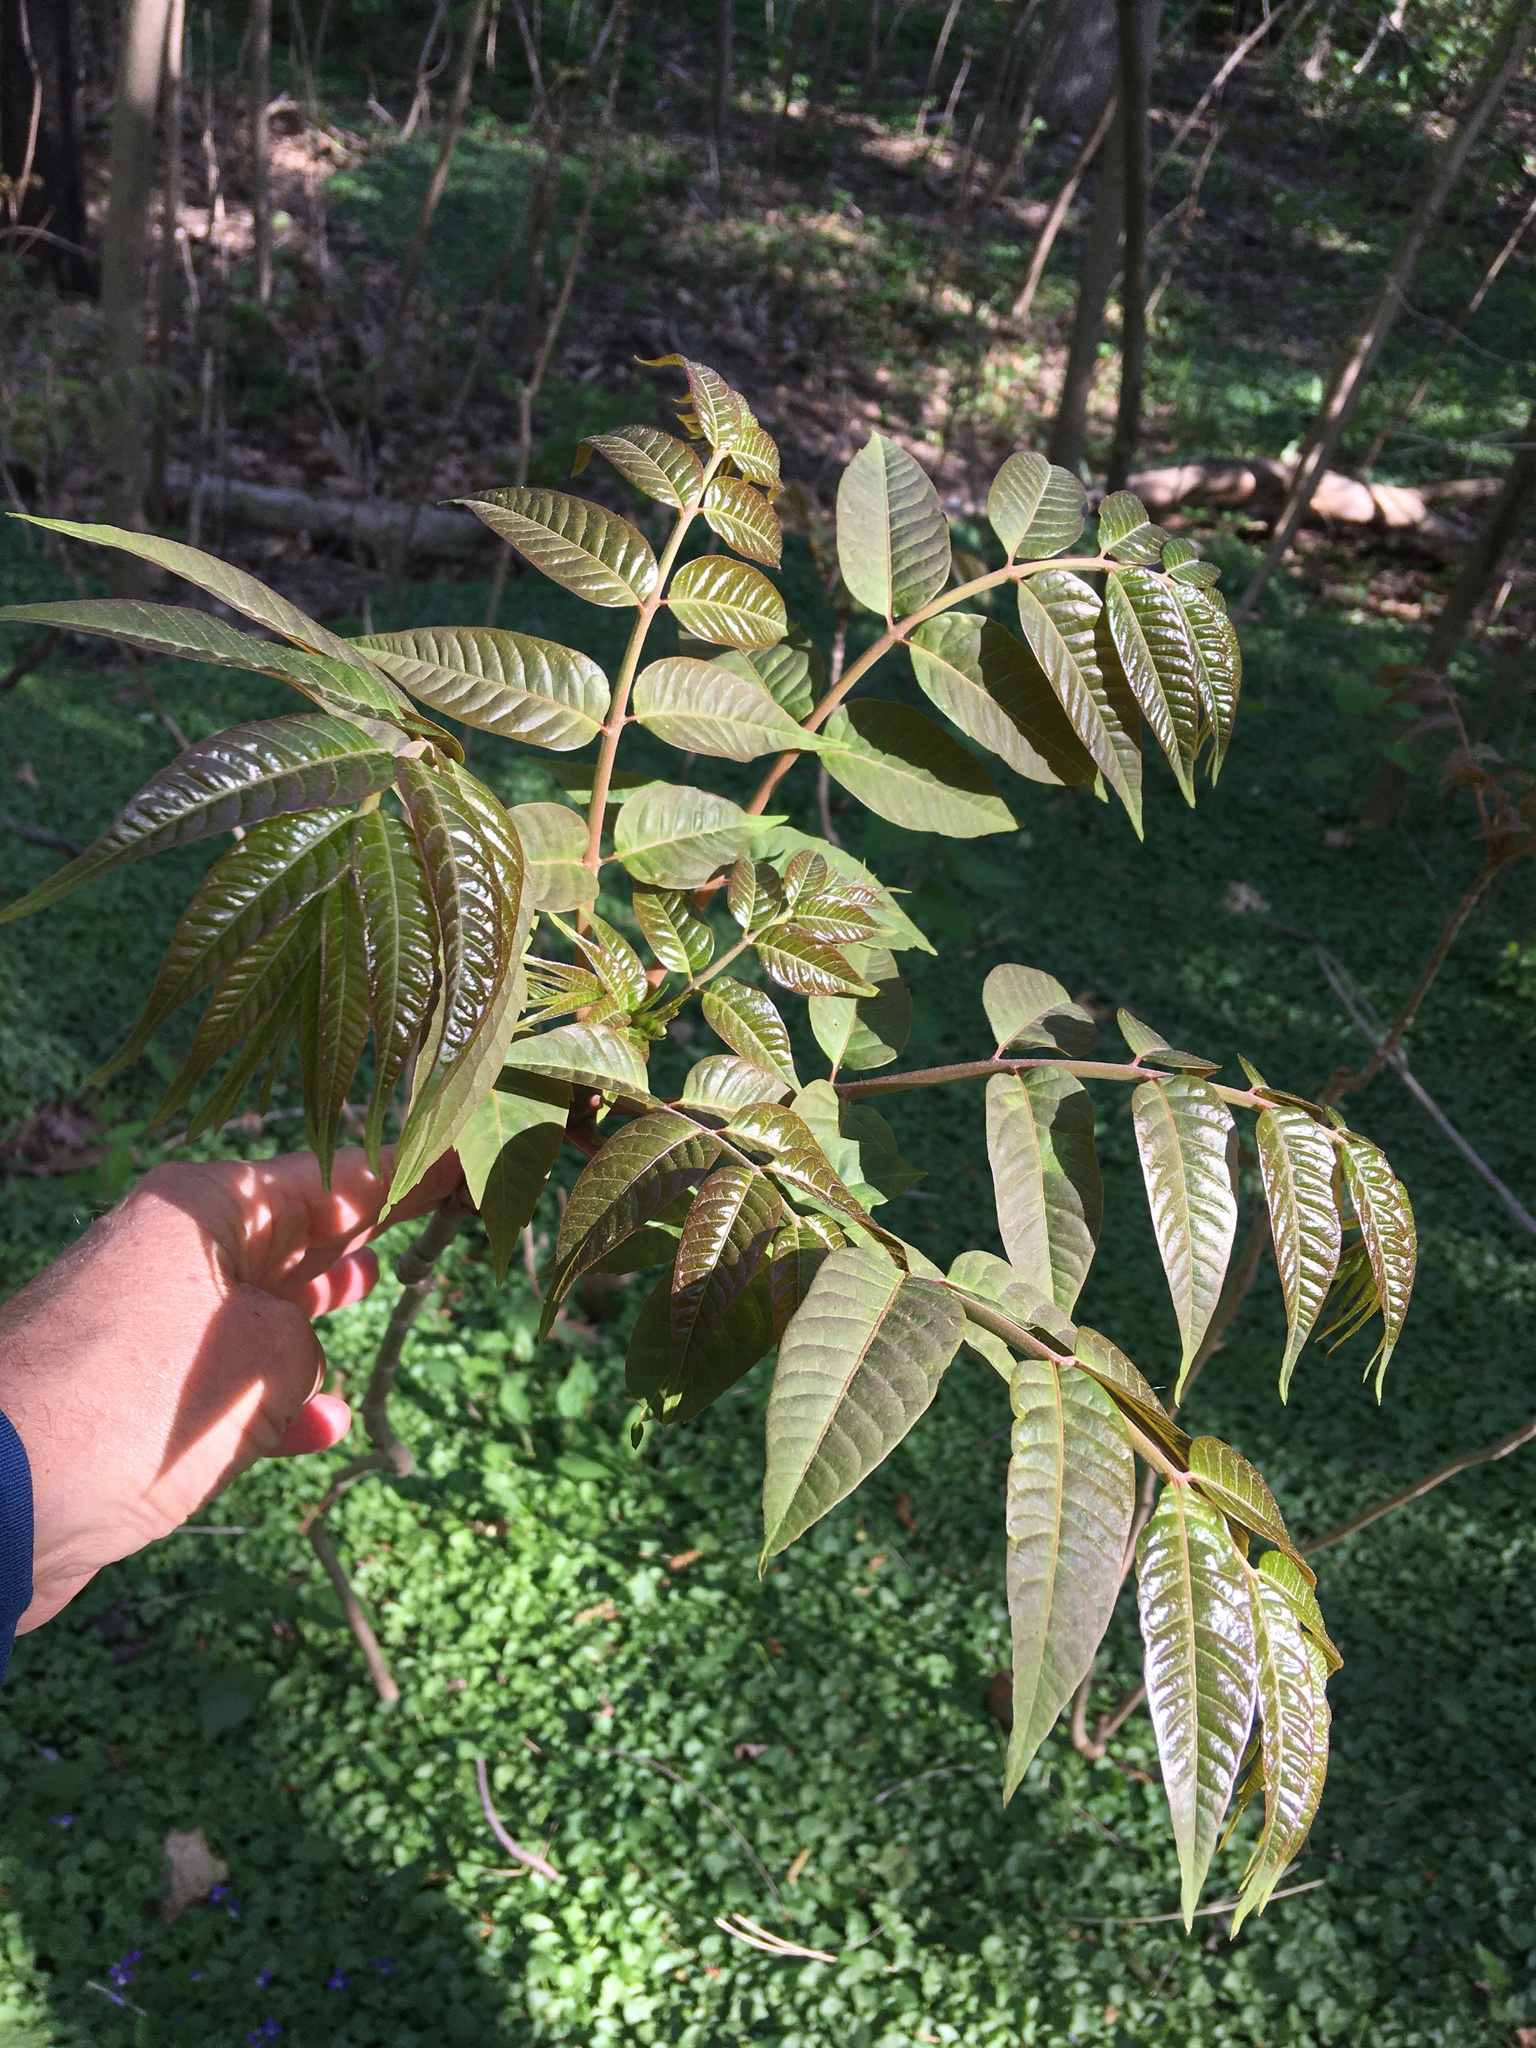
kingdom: Plantae
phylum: Tracheophyta
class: Magnoliopsida
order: Sapindales
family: Meliaceae
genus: Toona
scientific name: Toona sinensis
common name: Red toon
